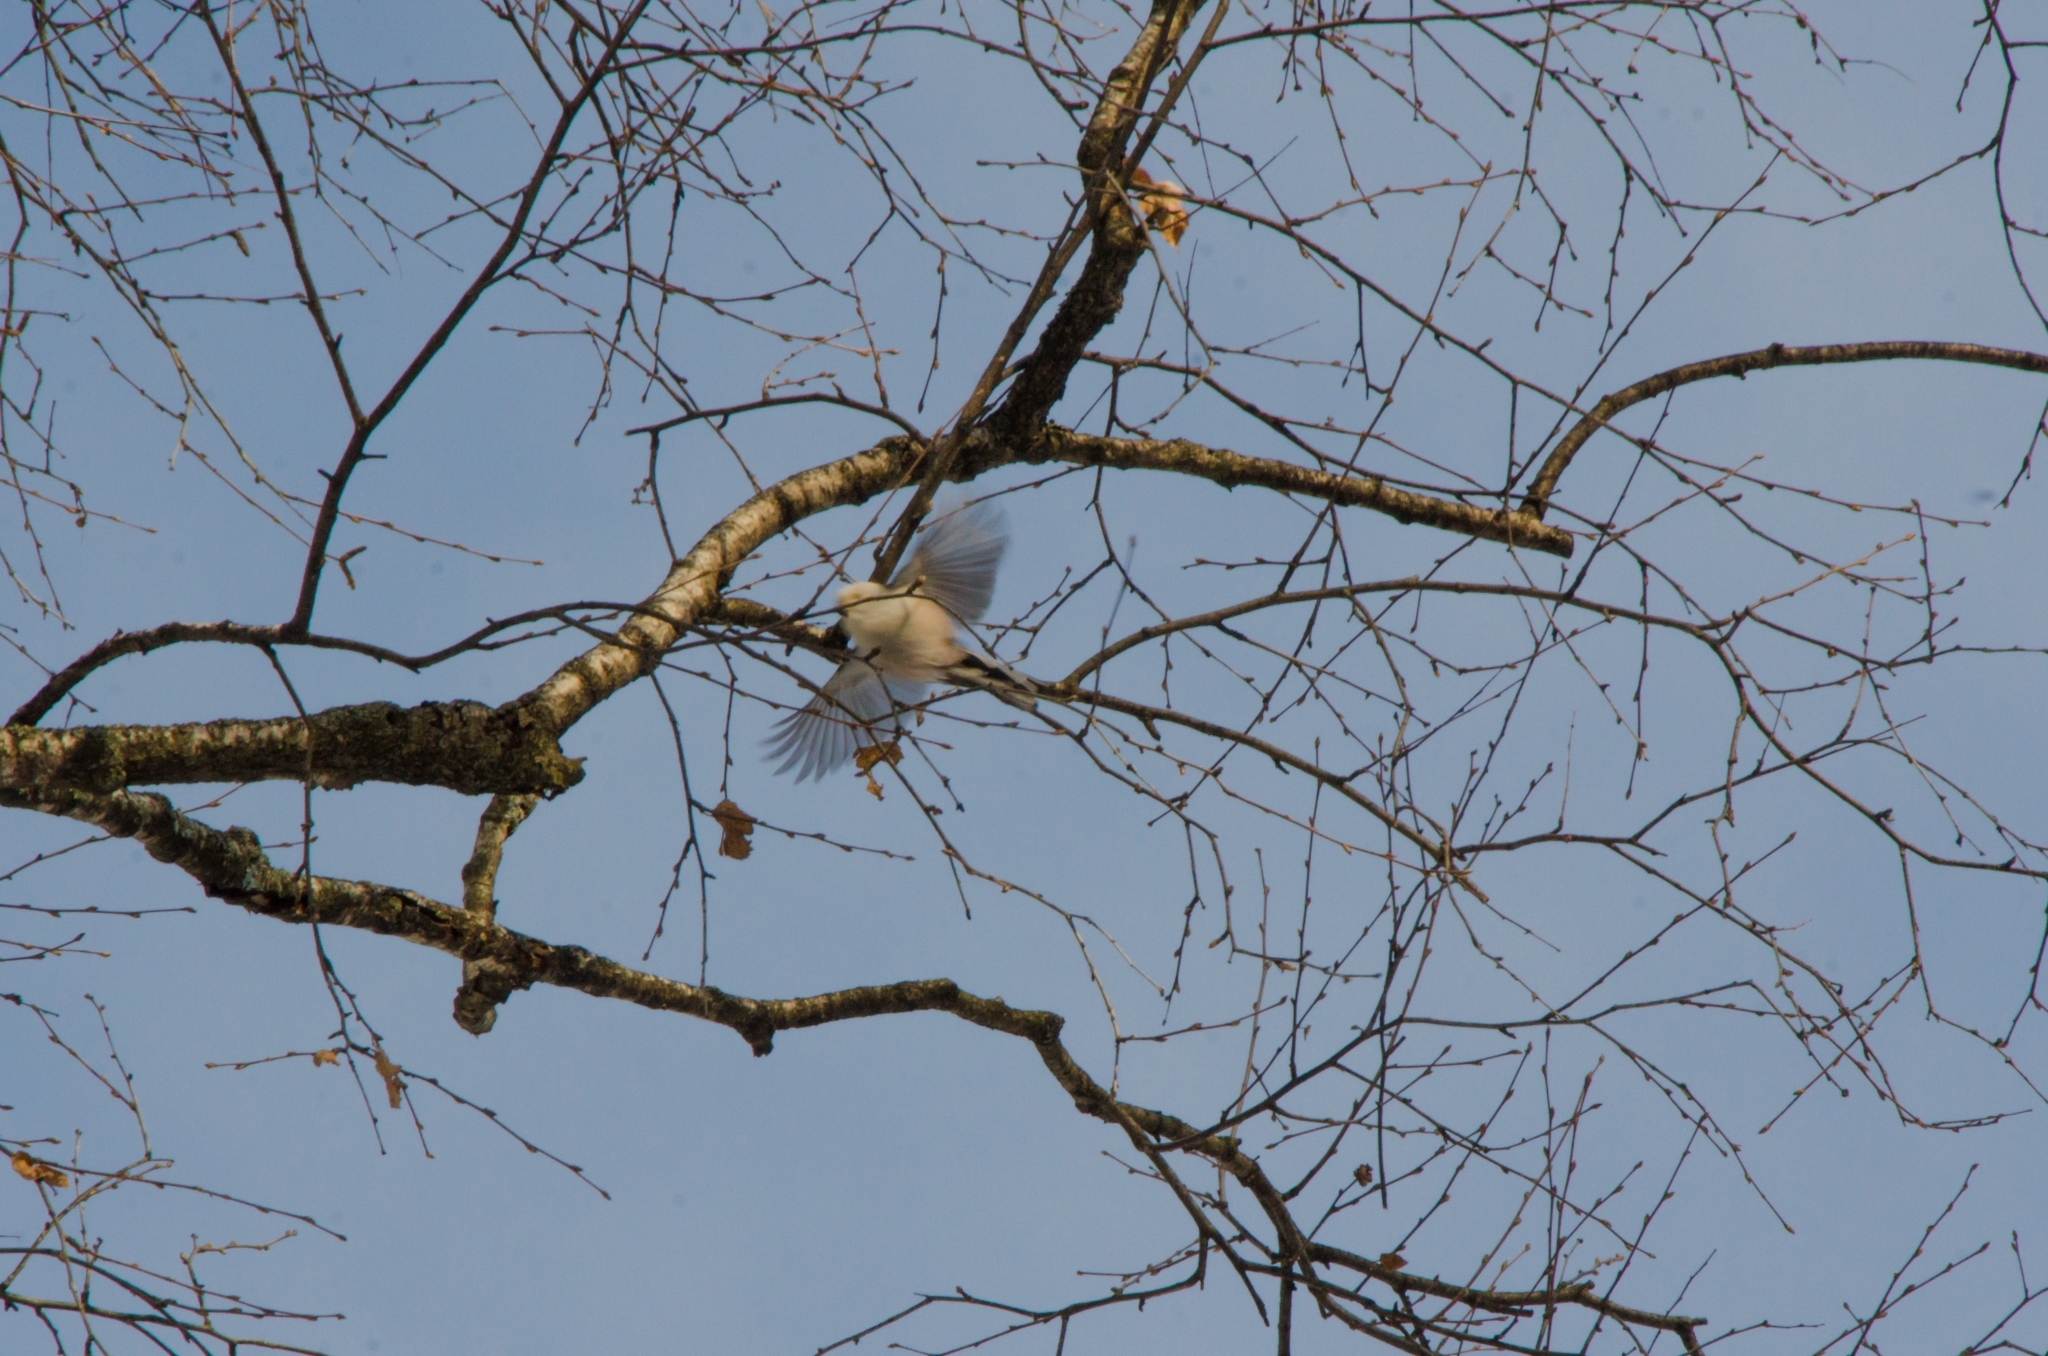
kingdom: Animalia
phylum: Chordata
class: Aves
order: Passeriformes
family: Aegithalidae
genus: Aegithalos
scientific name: Aegithalos caudatus
